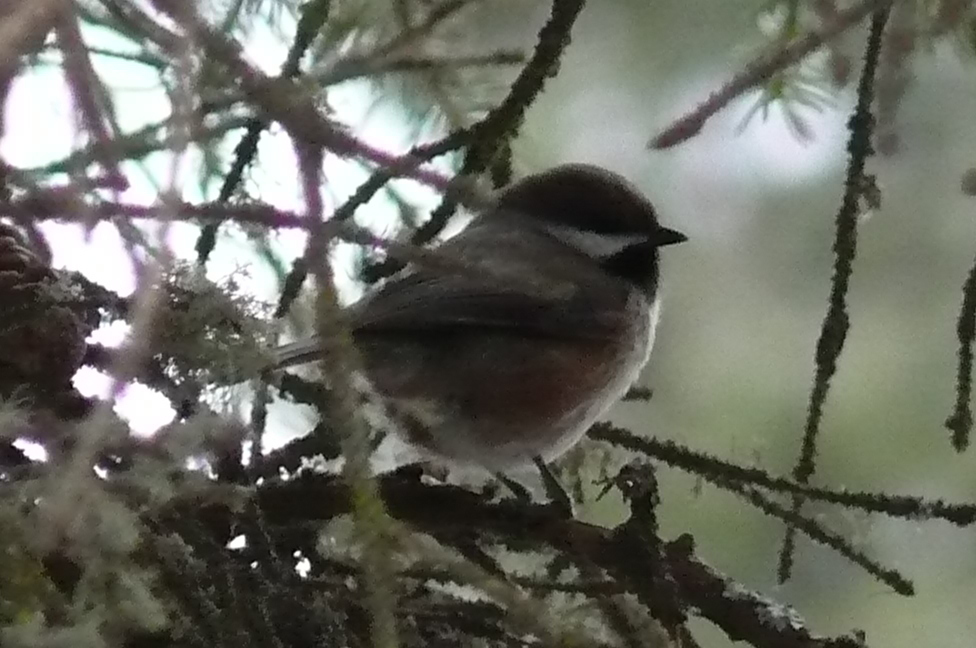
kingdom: Animalia
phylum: Chordata
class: Aves
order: Passeriformes
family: Paridae
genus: Poecile
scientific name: Poecile hudsonicus
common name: Boreal chickadee
